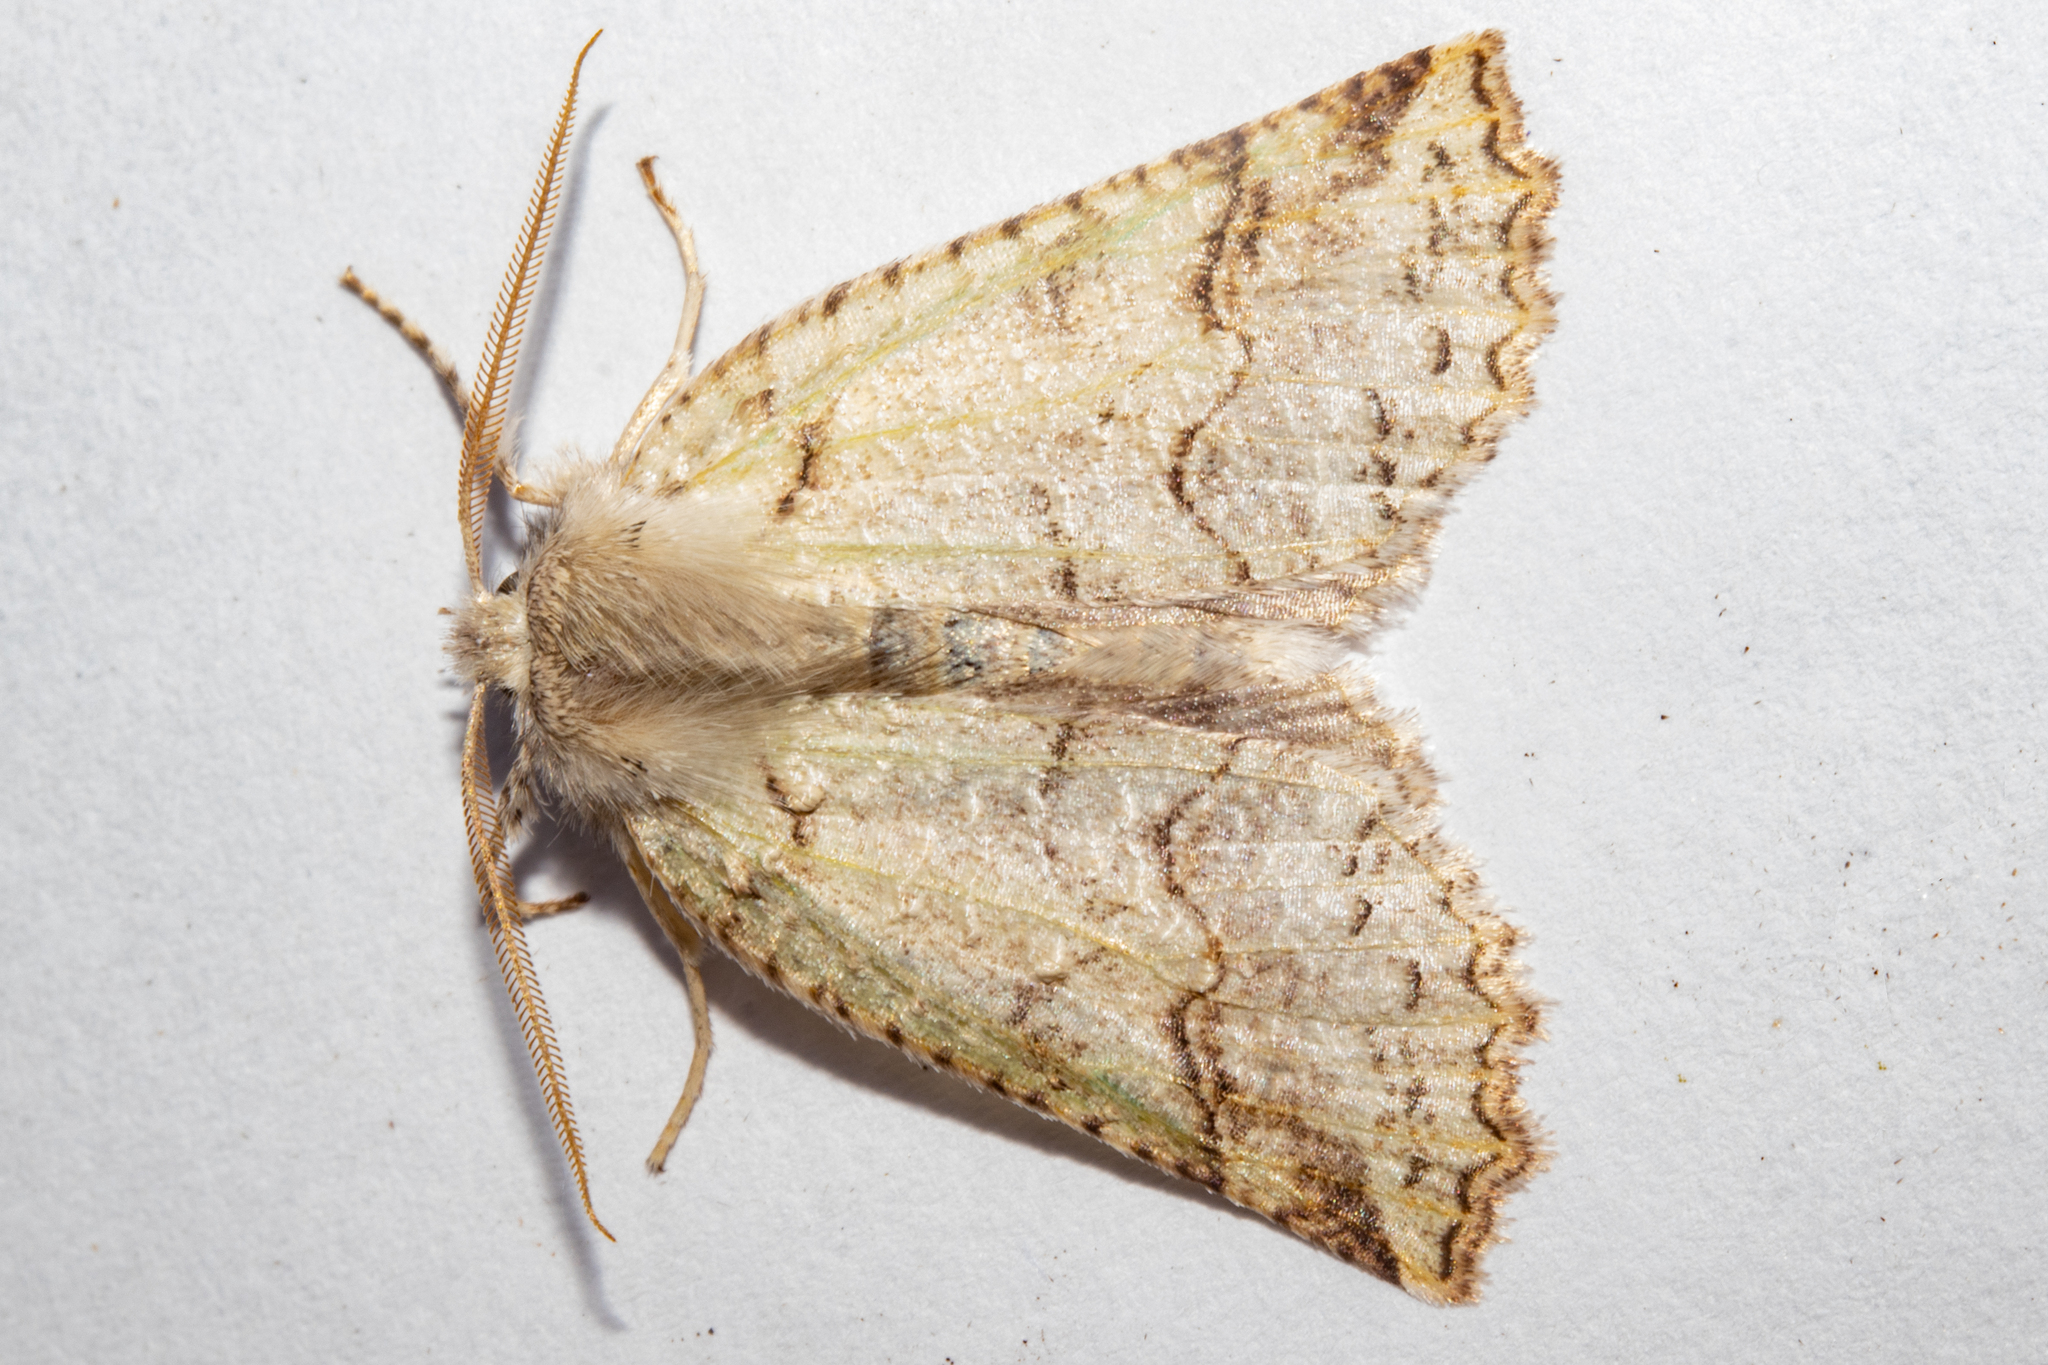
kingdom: Animalia
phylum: Arthropoda
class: Insecta
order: Lepidoptera
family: Geometridae
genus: Declana
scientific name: Declana floccosa
